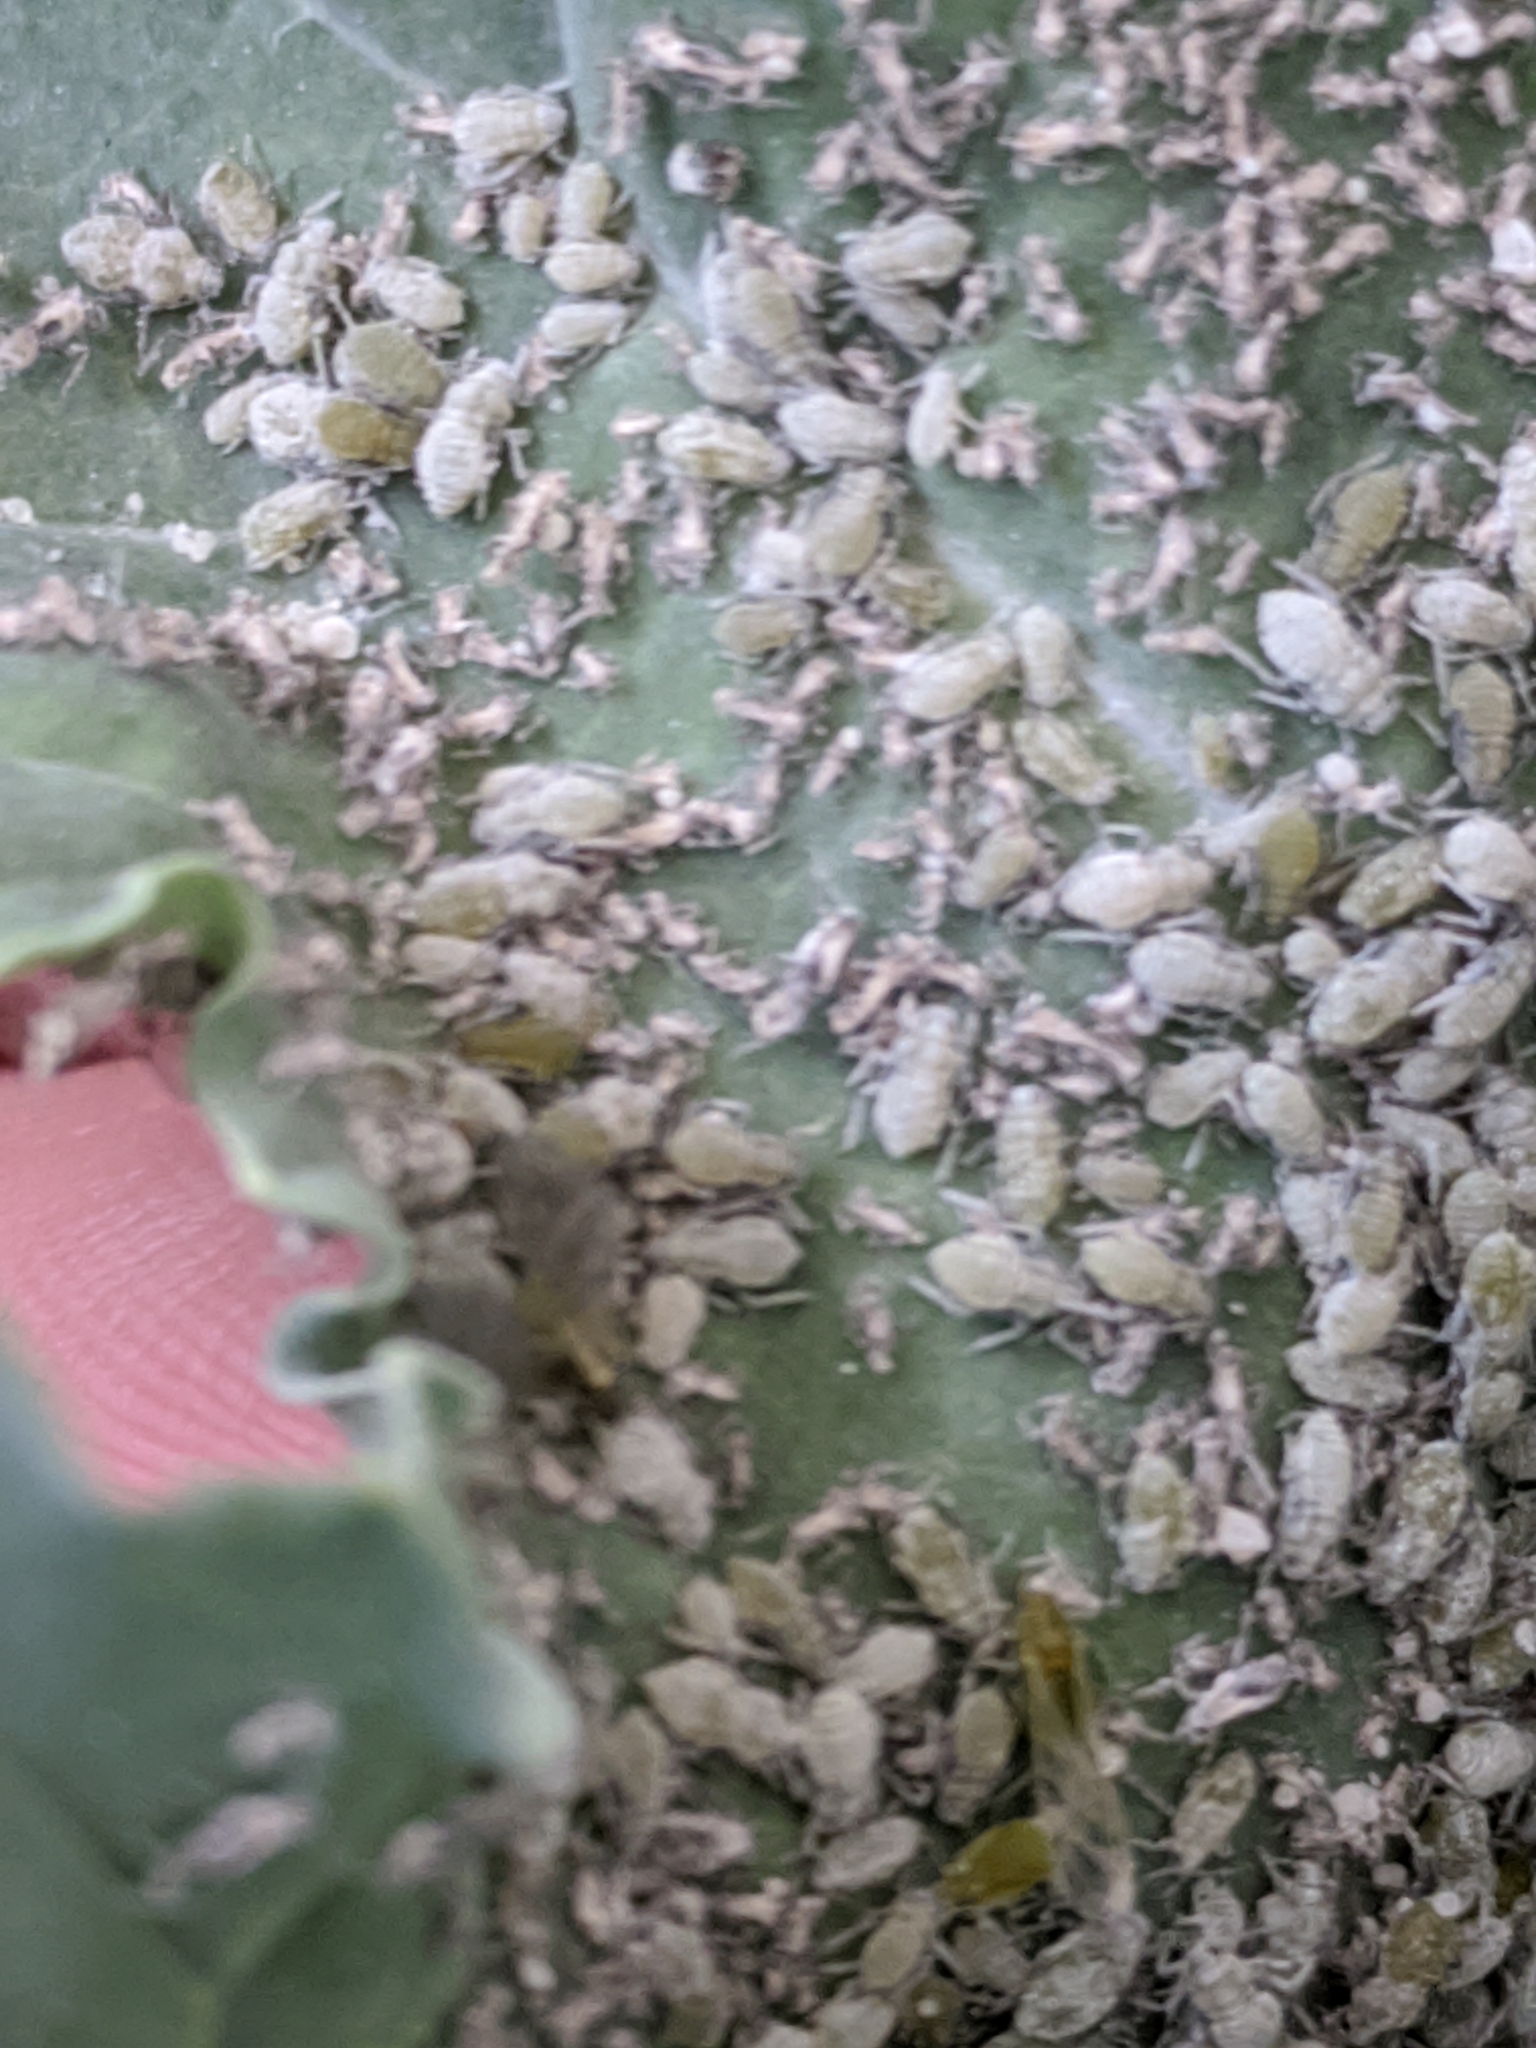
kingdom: Animalia
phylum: Arthropoda
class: Insecta
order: Hemiptera
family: Aphididae
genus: Brevicoryne
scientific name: Brevicoryne brassicae
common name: Cabbage aphid
